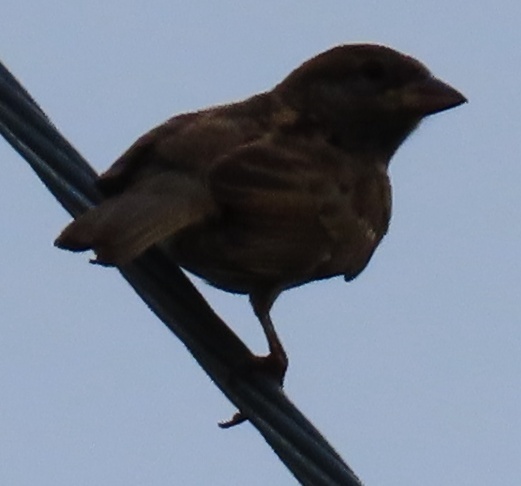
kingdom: Animalia
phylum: Chordata
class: Aves
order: Passeriformes
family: Passeridae
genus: Passer
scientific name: Passer domesticus
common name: House sparrow
